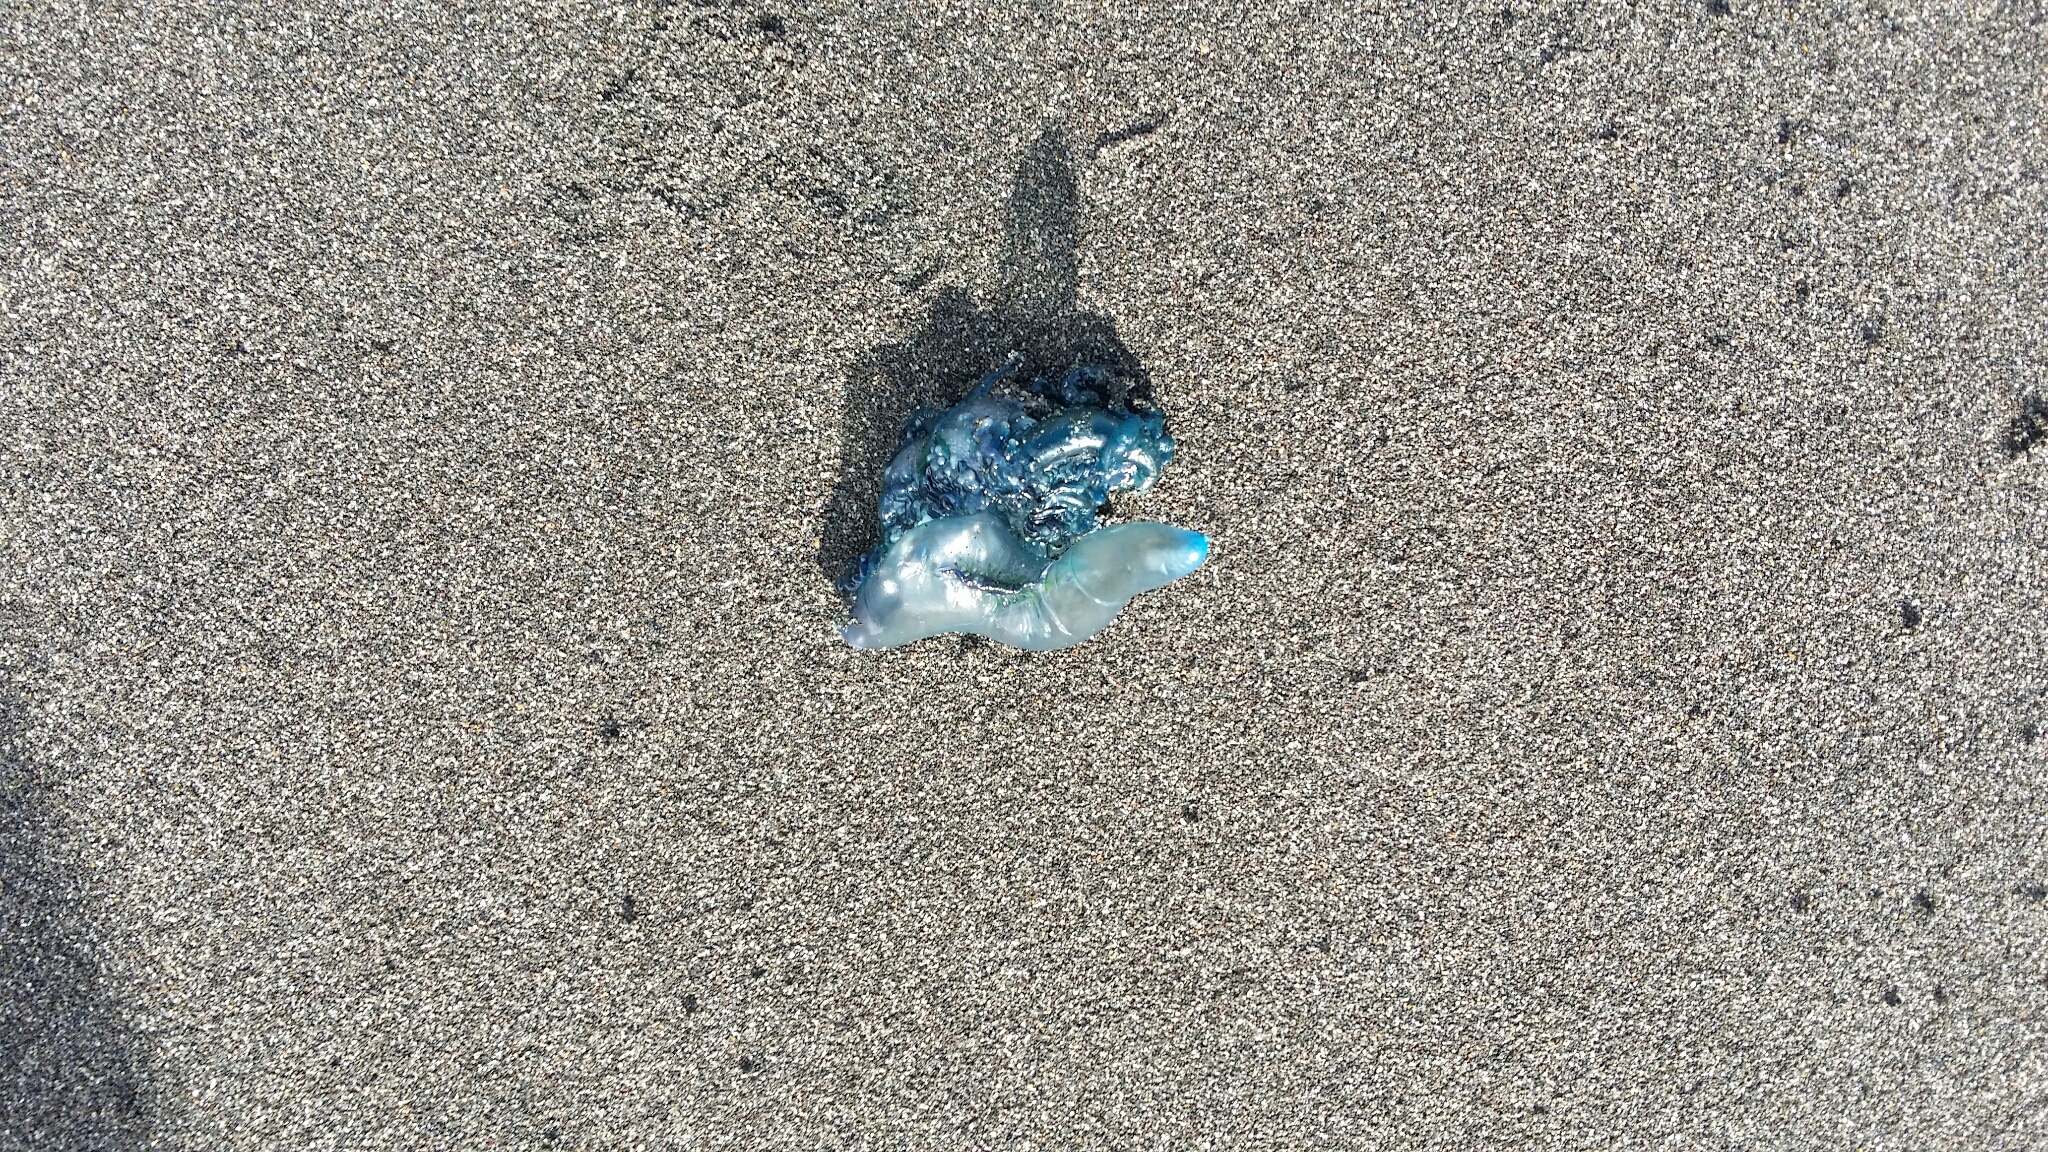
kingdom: Animalia
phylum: Cnidaria
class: Hydrozoa
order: Siphonophorae
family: Physaliidae
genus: Physalia
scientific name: Physalia physalis
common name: Portuguese man-of-war
